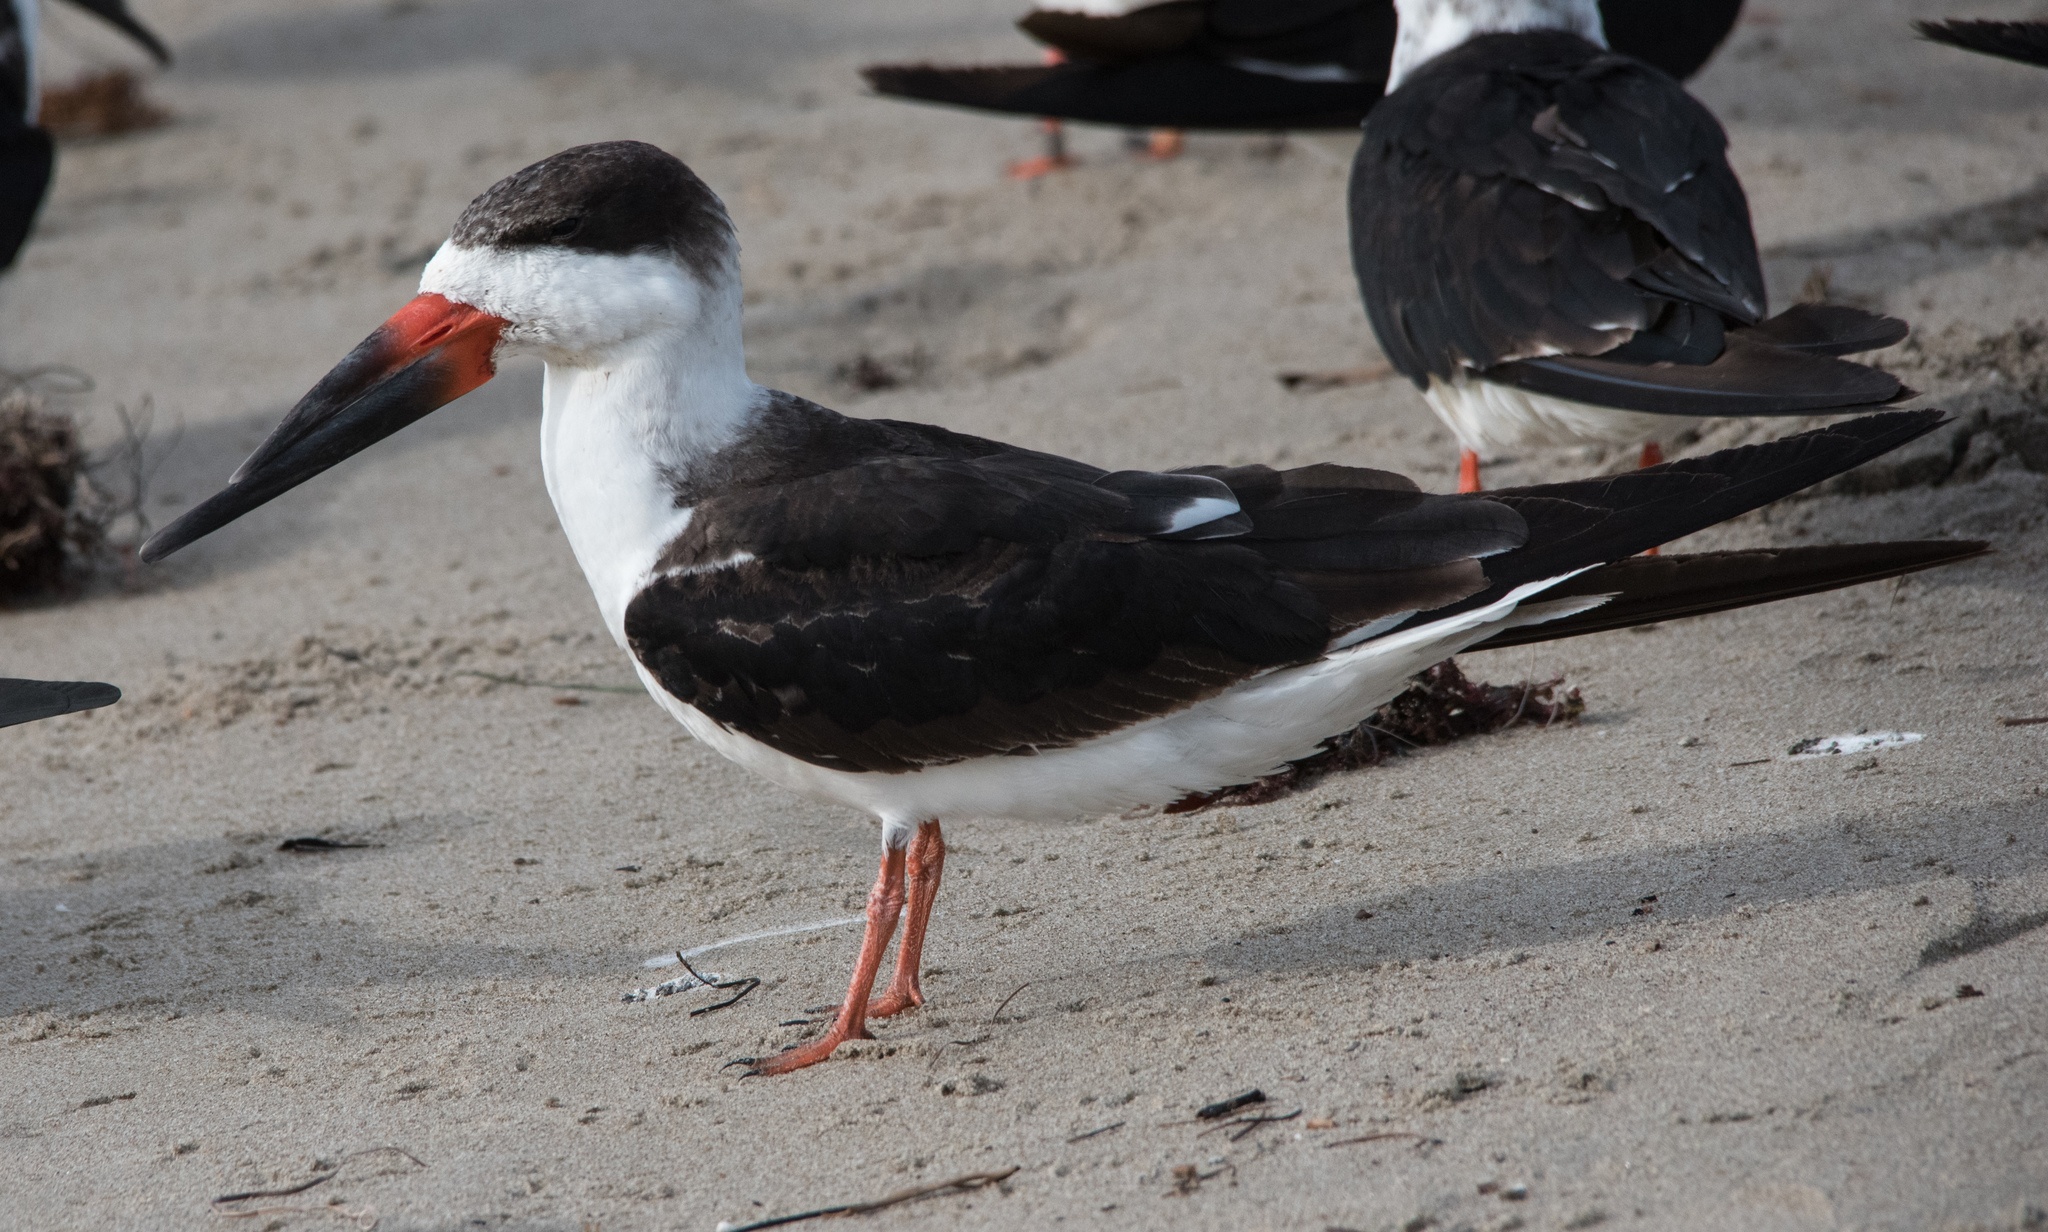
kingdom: Animalia
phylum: Chordata
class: Aves
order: Charadriiformes
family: Laridae
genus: Rynchops
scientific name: Rynchops niger
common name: Black skimmer
